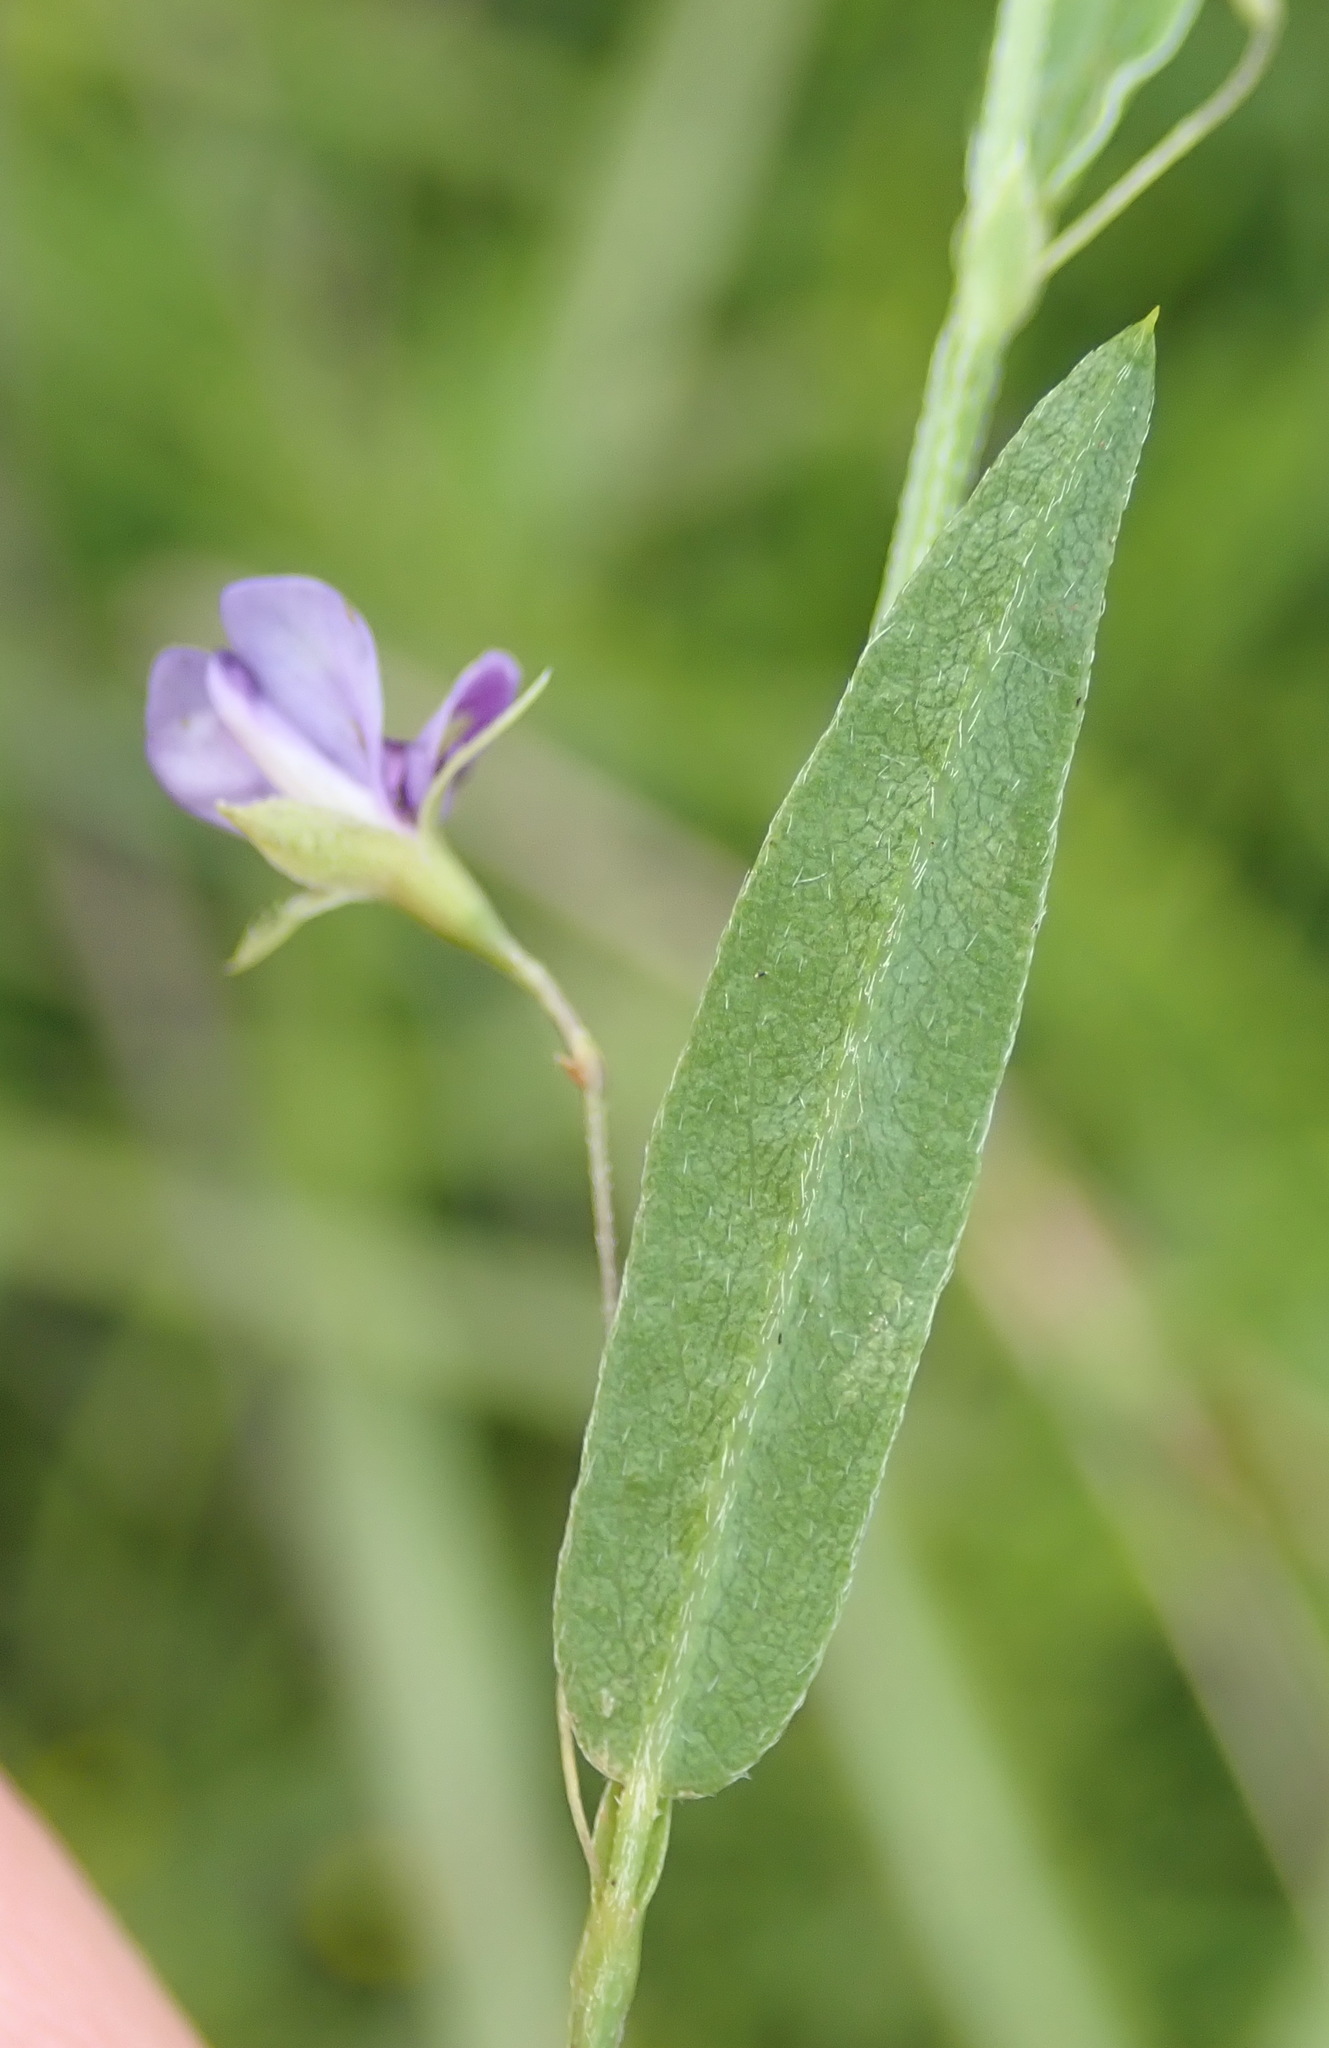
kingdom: Plantae
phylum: Tracheophyta
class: Magnoliopsida
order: Fabales
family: Fabaceae
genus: Psoralea
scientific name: Psoralea plauta
